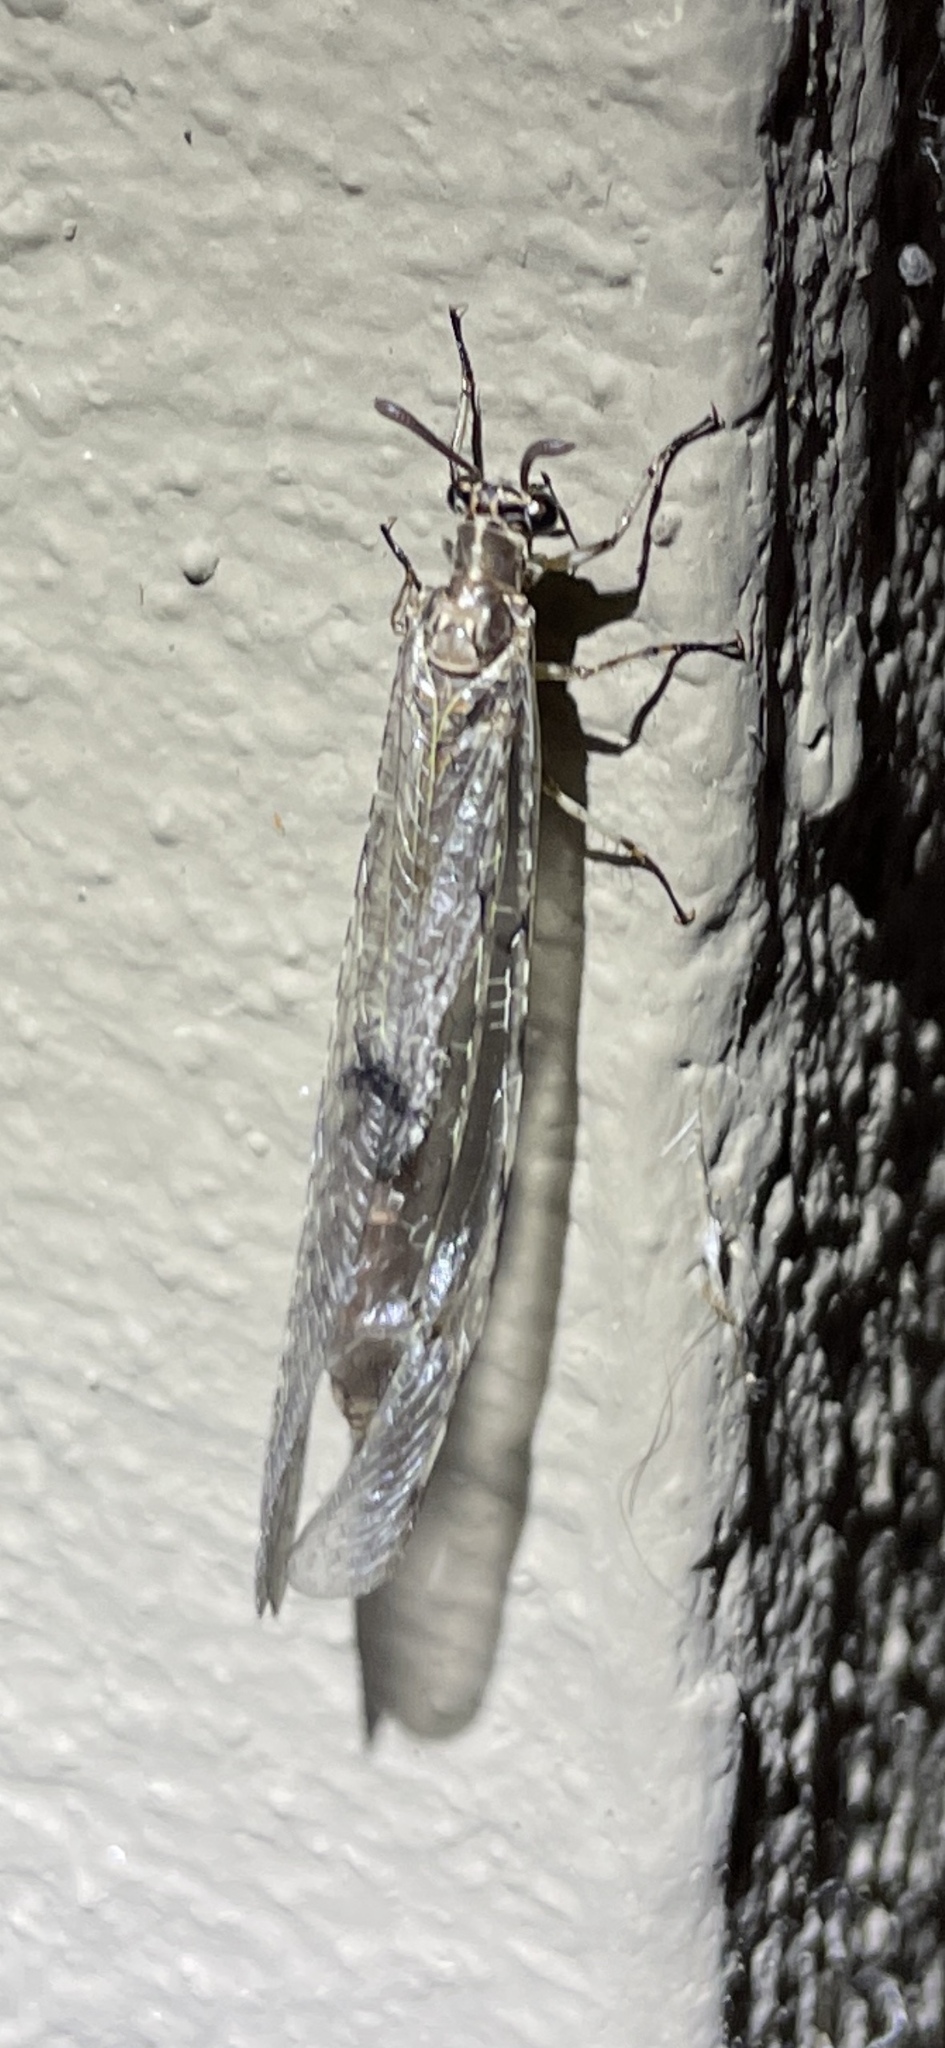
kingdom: Animalia
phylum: Arthropoda
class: Insecta
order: Neuroptera
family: Myrmeleontidae
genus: Euroleon
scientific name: Euroleon nostras
